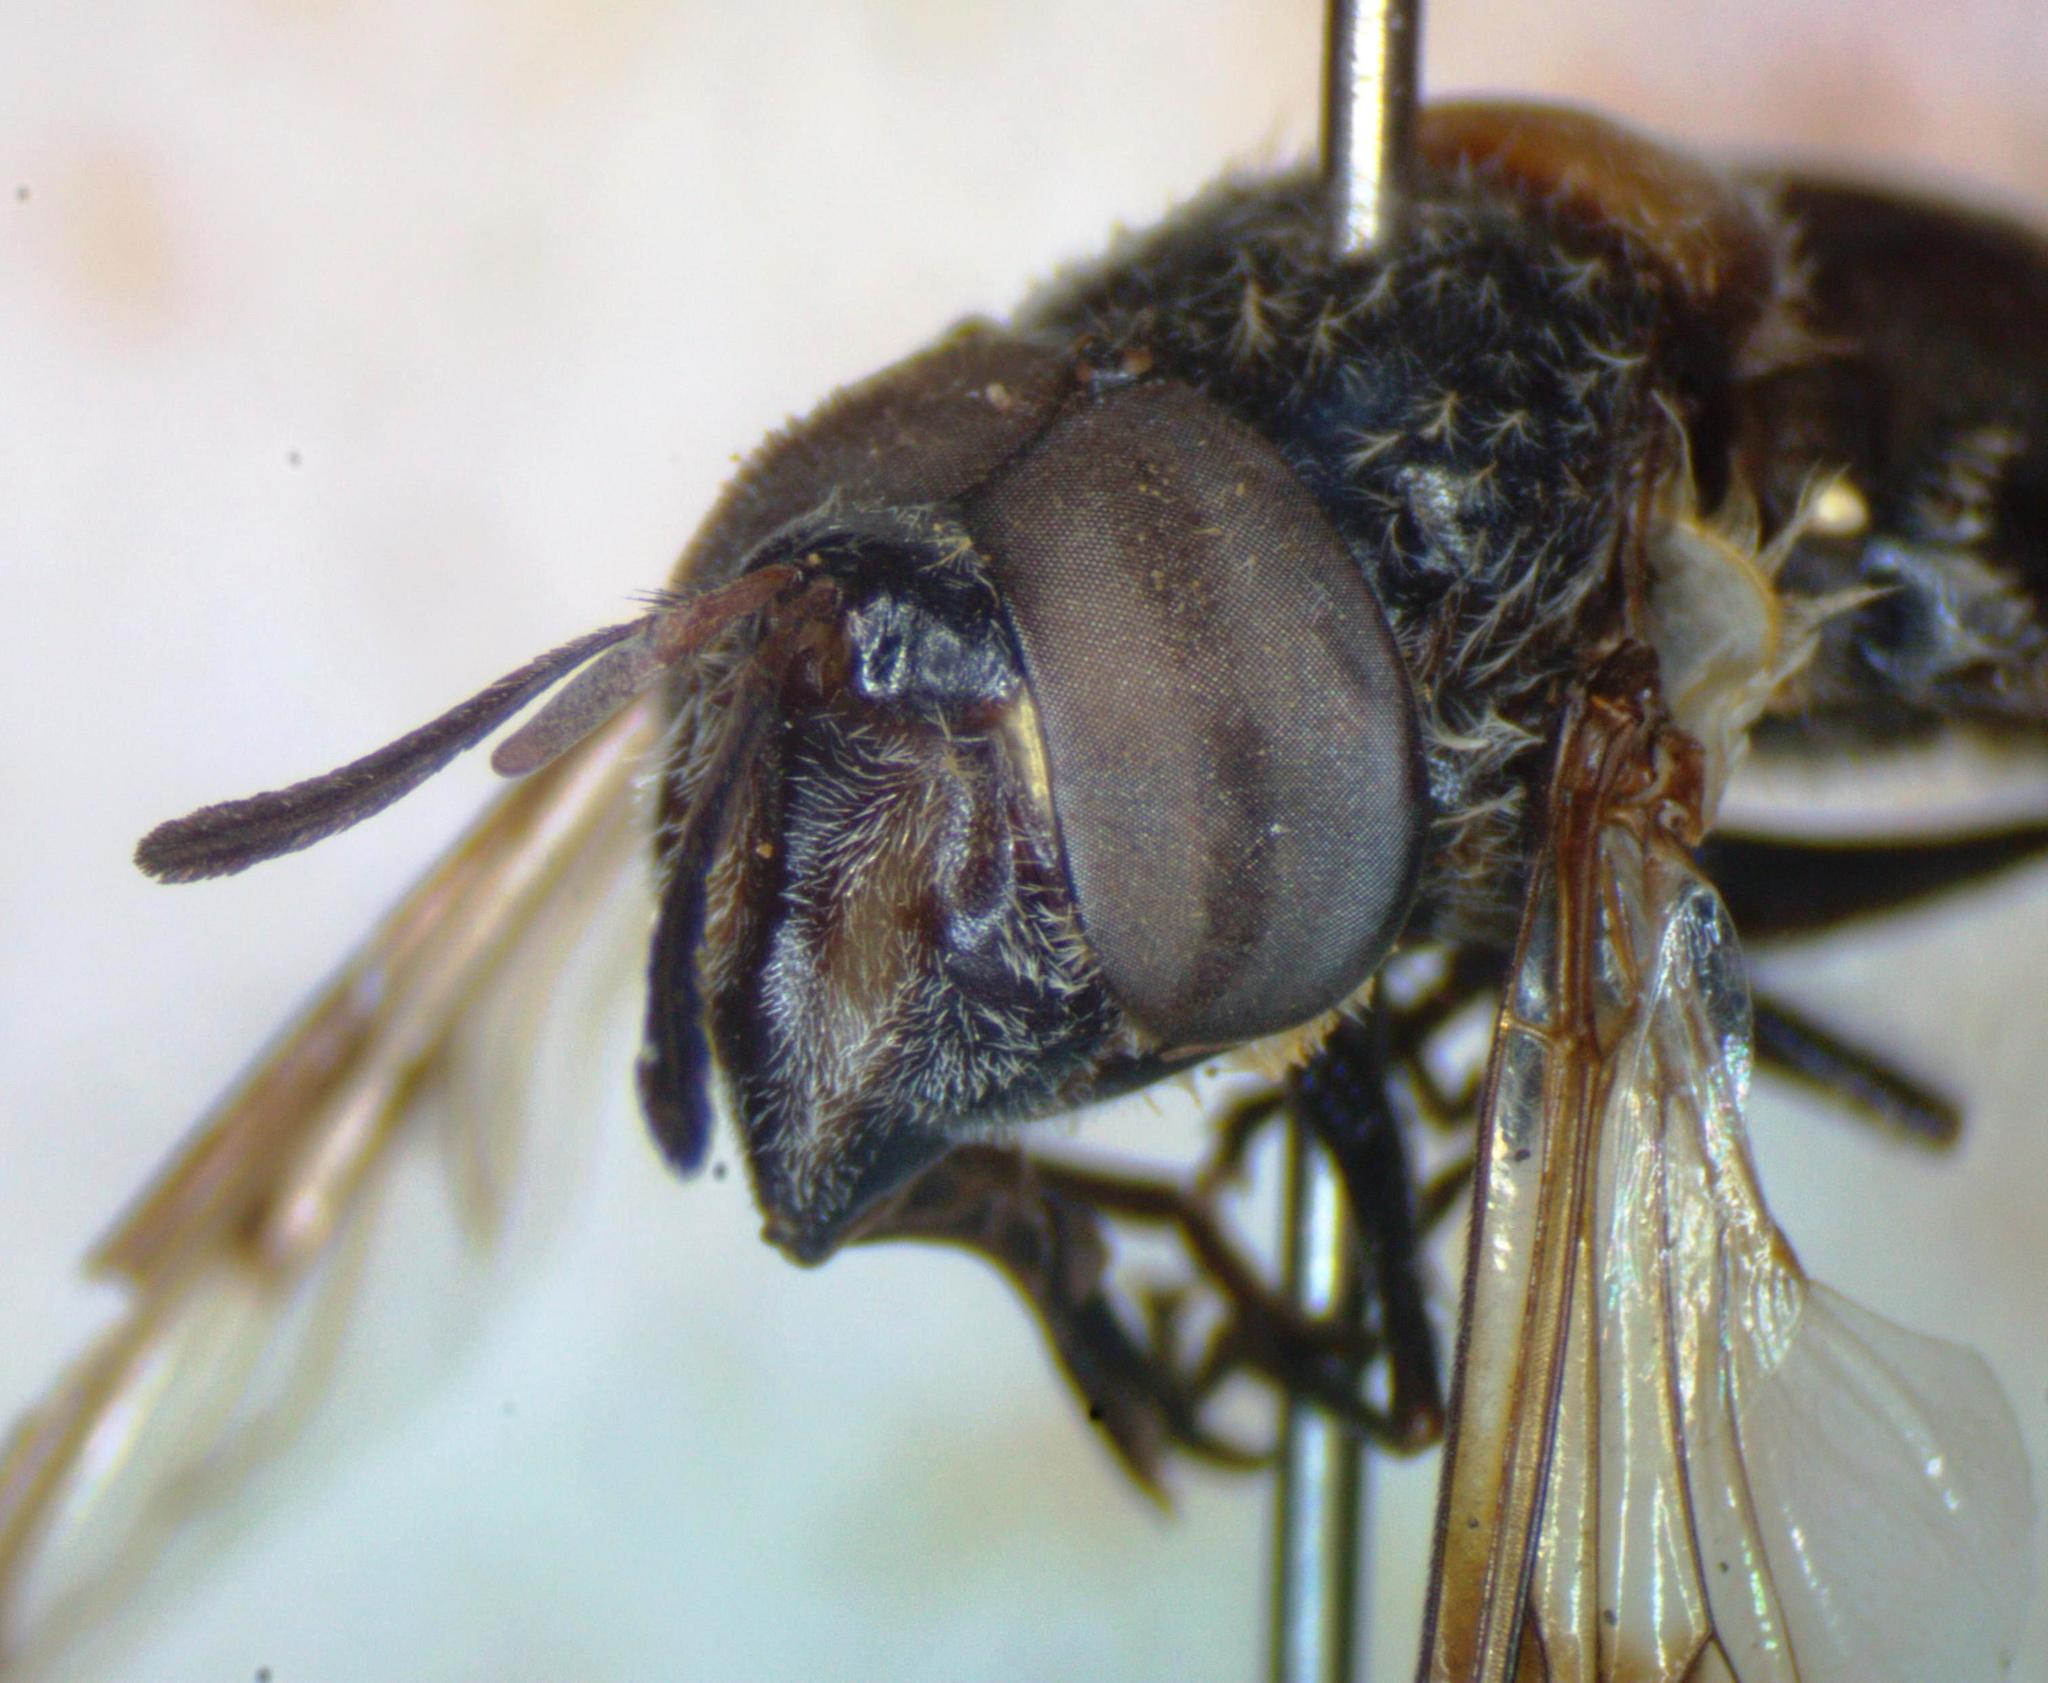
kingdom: Animalia
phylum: Arthropoda
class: Insecta
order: Diptera
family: Syrphidae
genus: Copestylum
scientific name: Copestylum limbipenne
